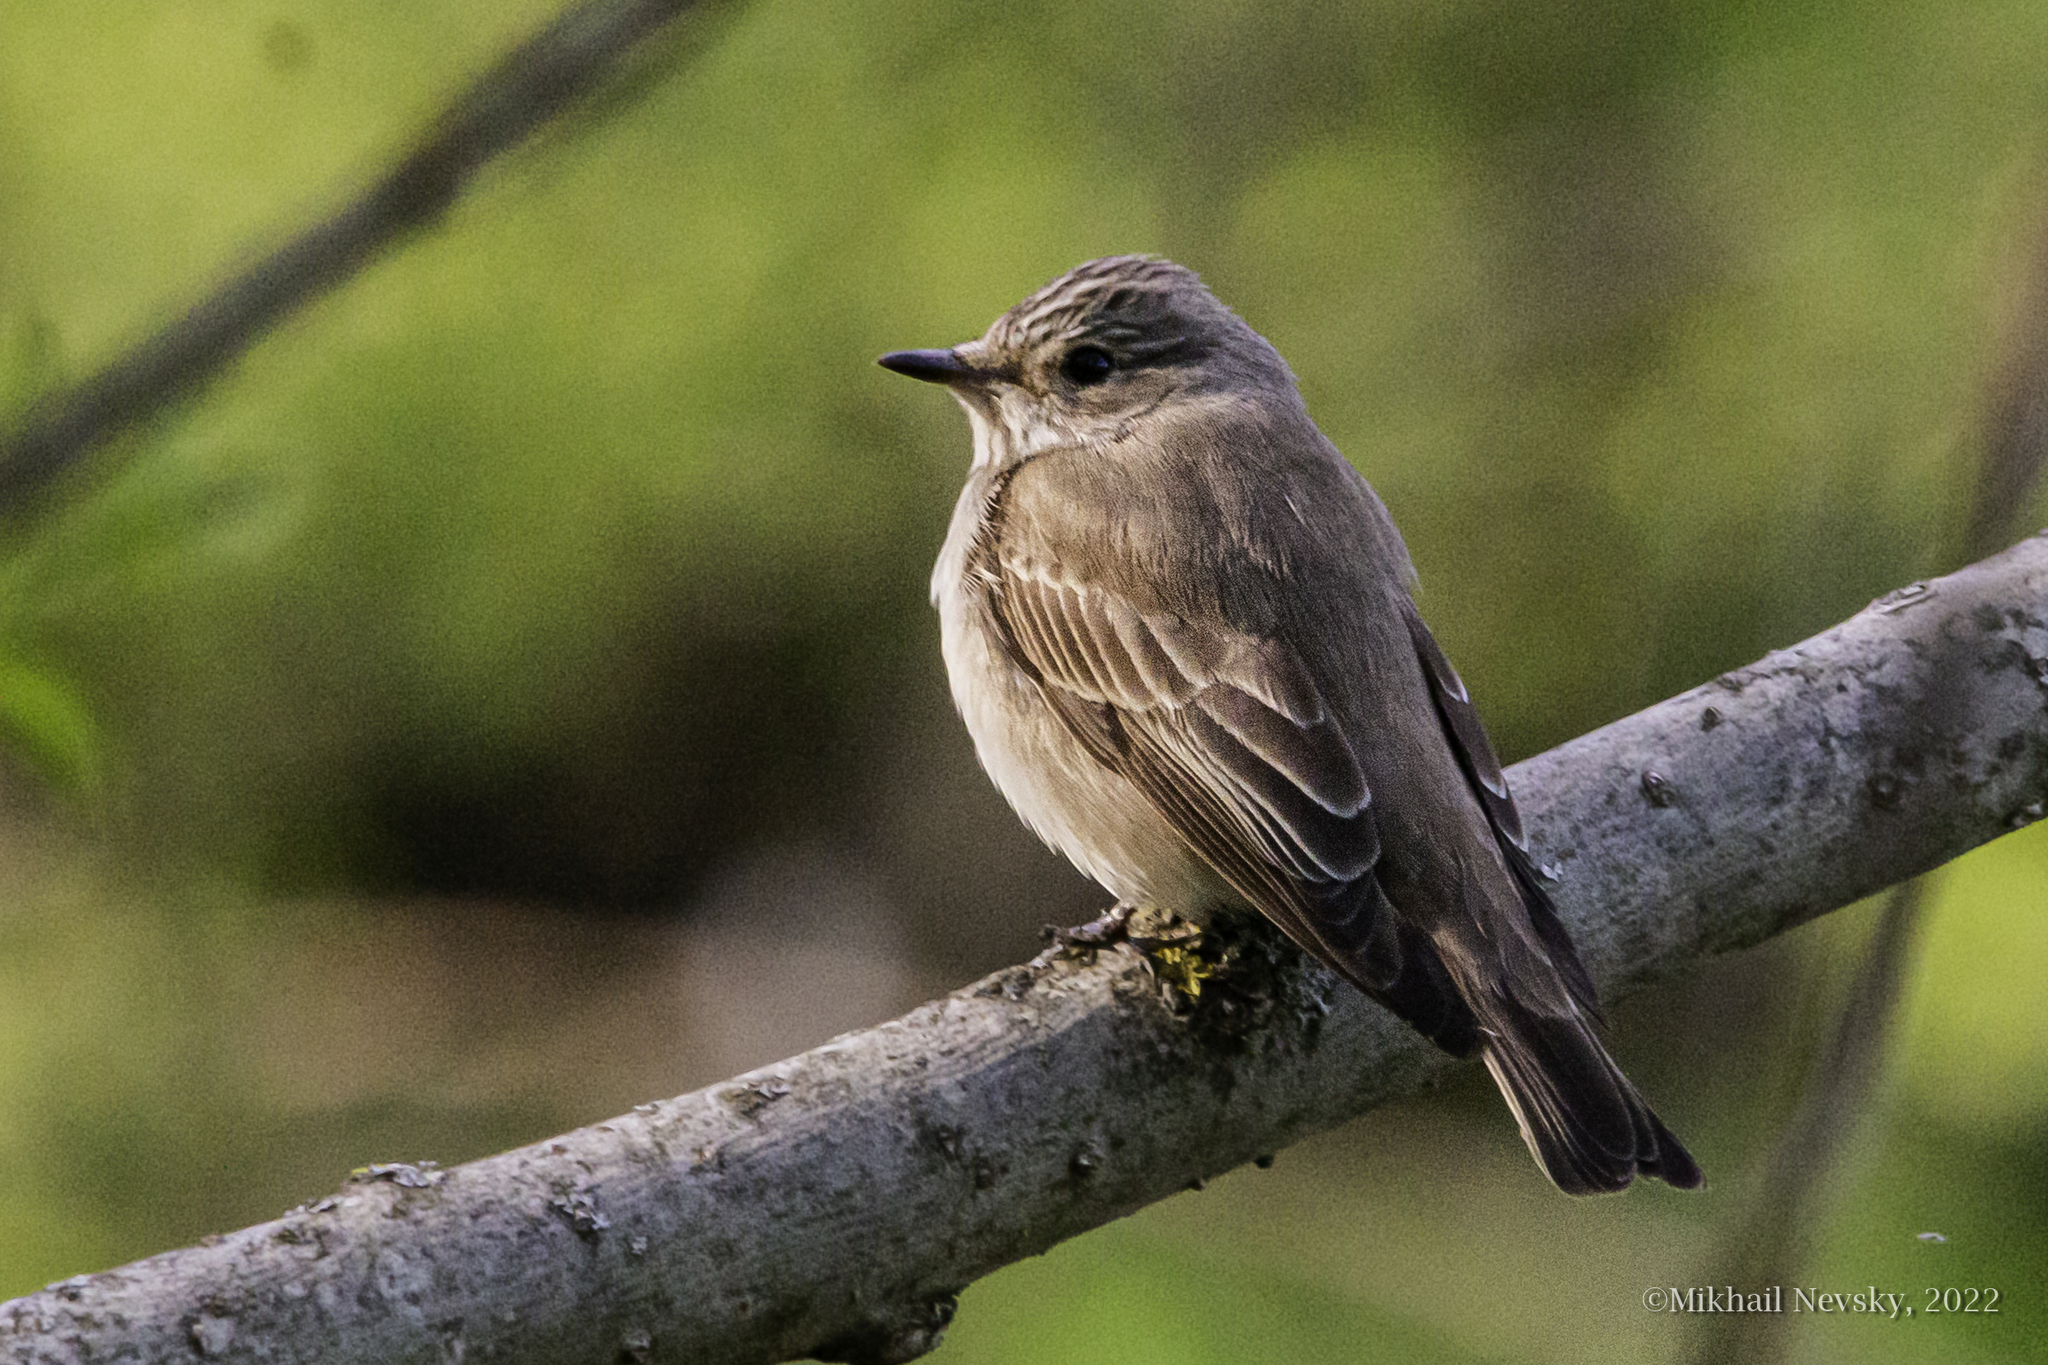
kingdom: Animalia
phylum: Chordata
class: Aves
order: Passeriformes
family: Muscicapidae
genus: Muscicapa
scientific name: Muscicapa striata
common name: Spotted flycatcher
